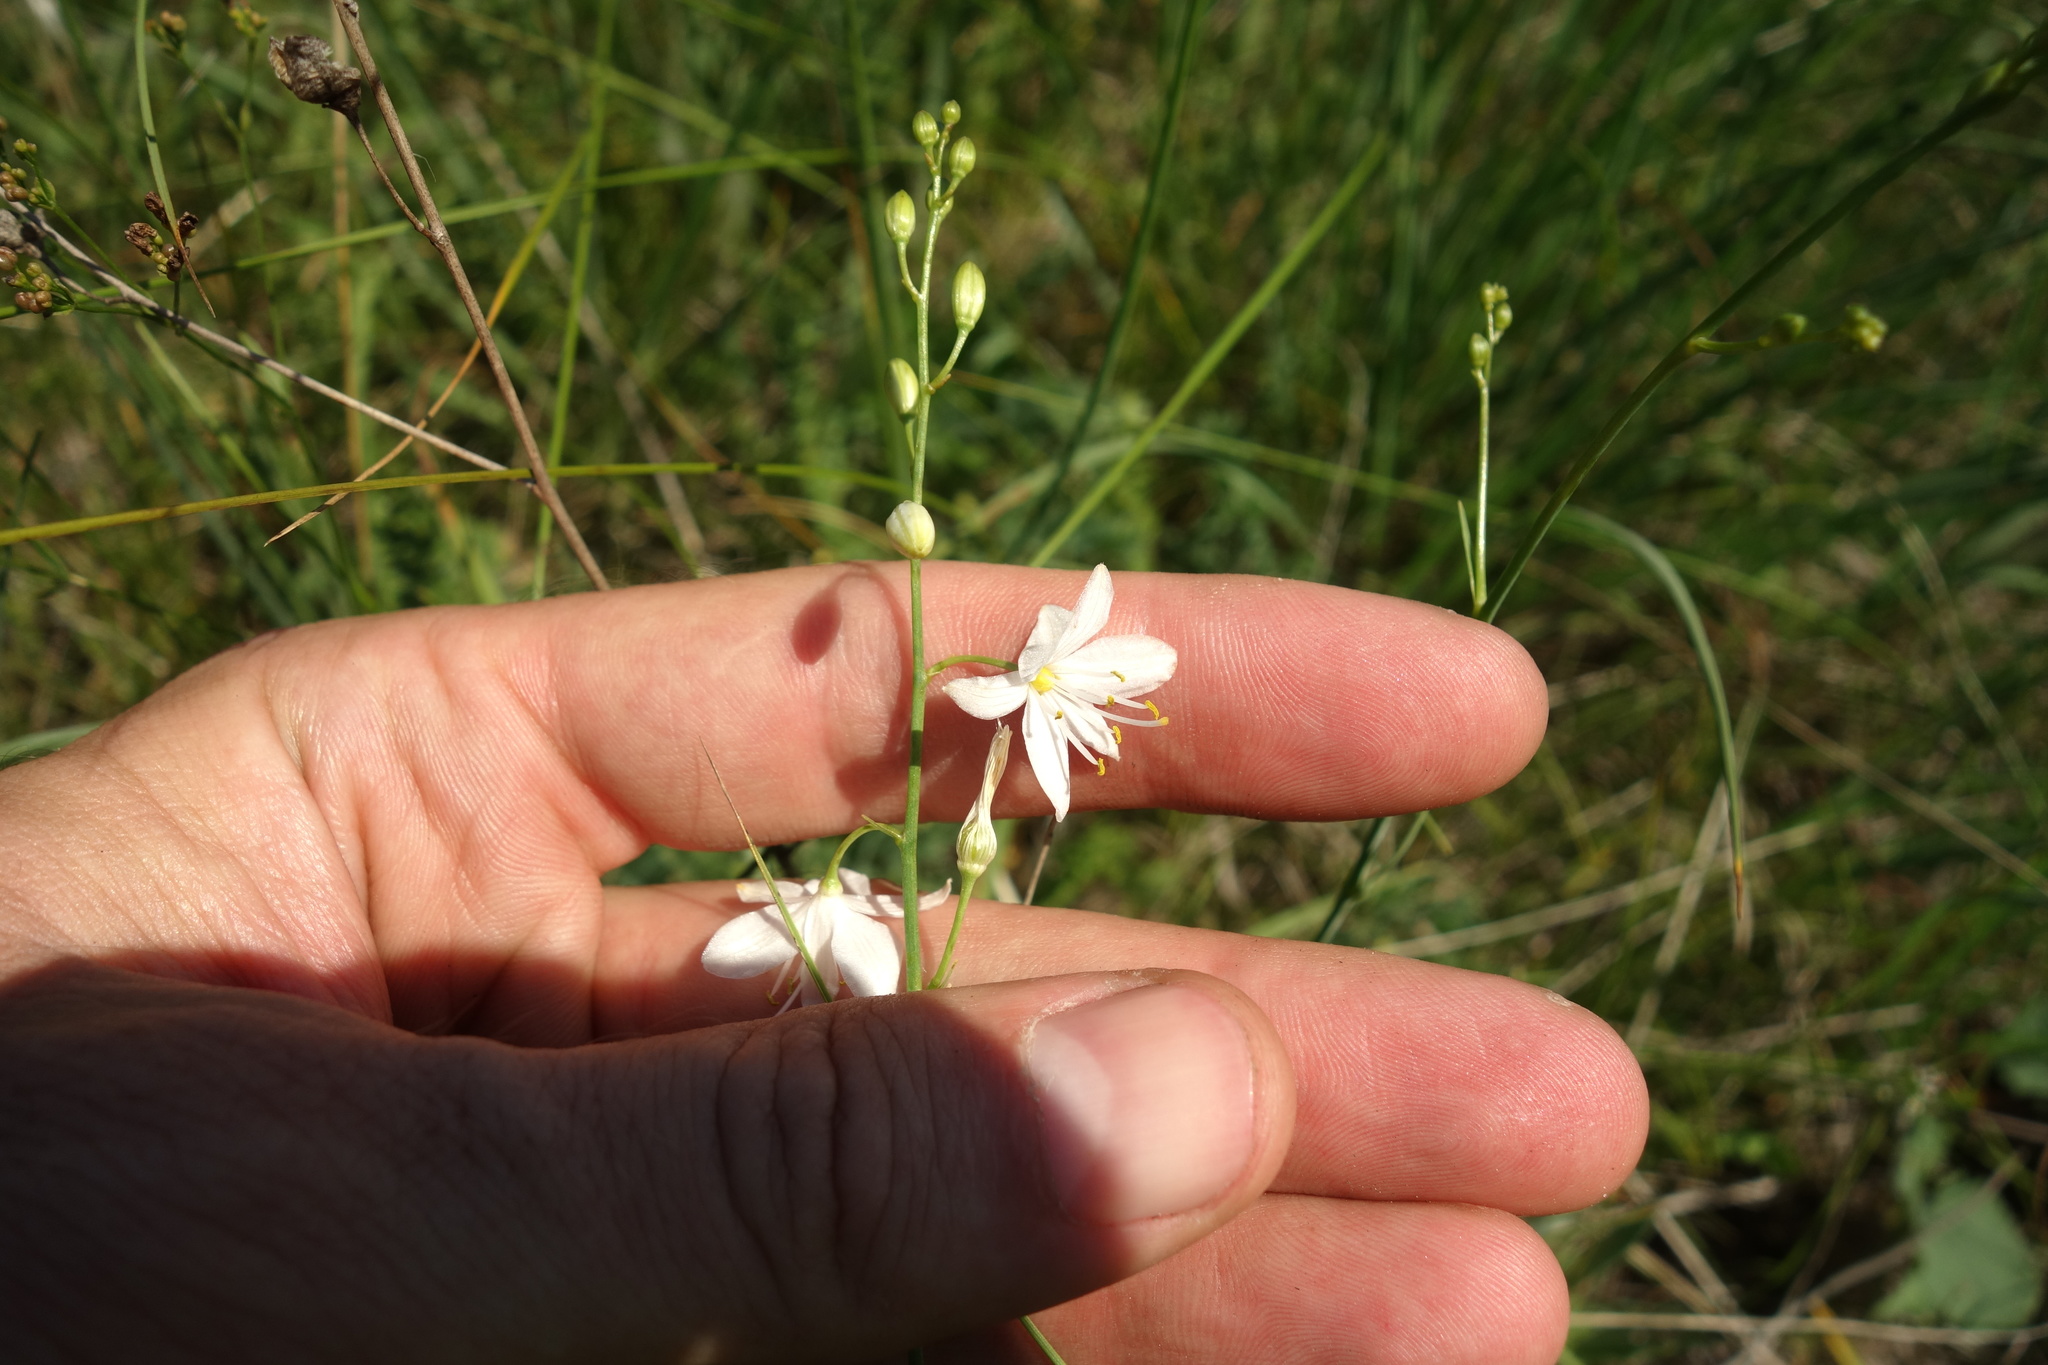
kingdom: Plantae
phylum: Tracheophyta
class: Liliopsida
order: Asparagales
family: Asparagaceae
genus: Anthericum
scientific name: Anthericum ramosum
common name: Branched st. bernard's-lily
